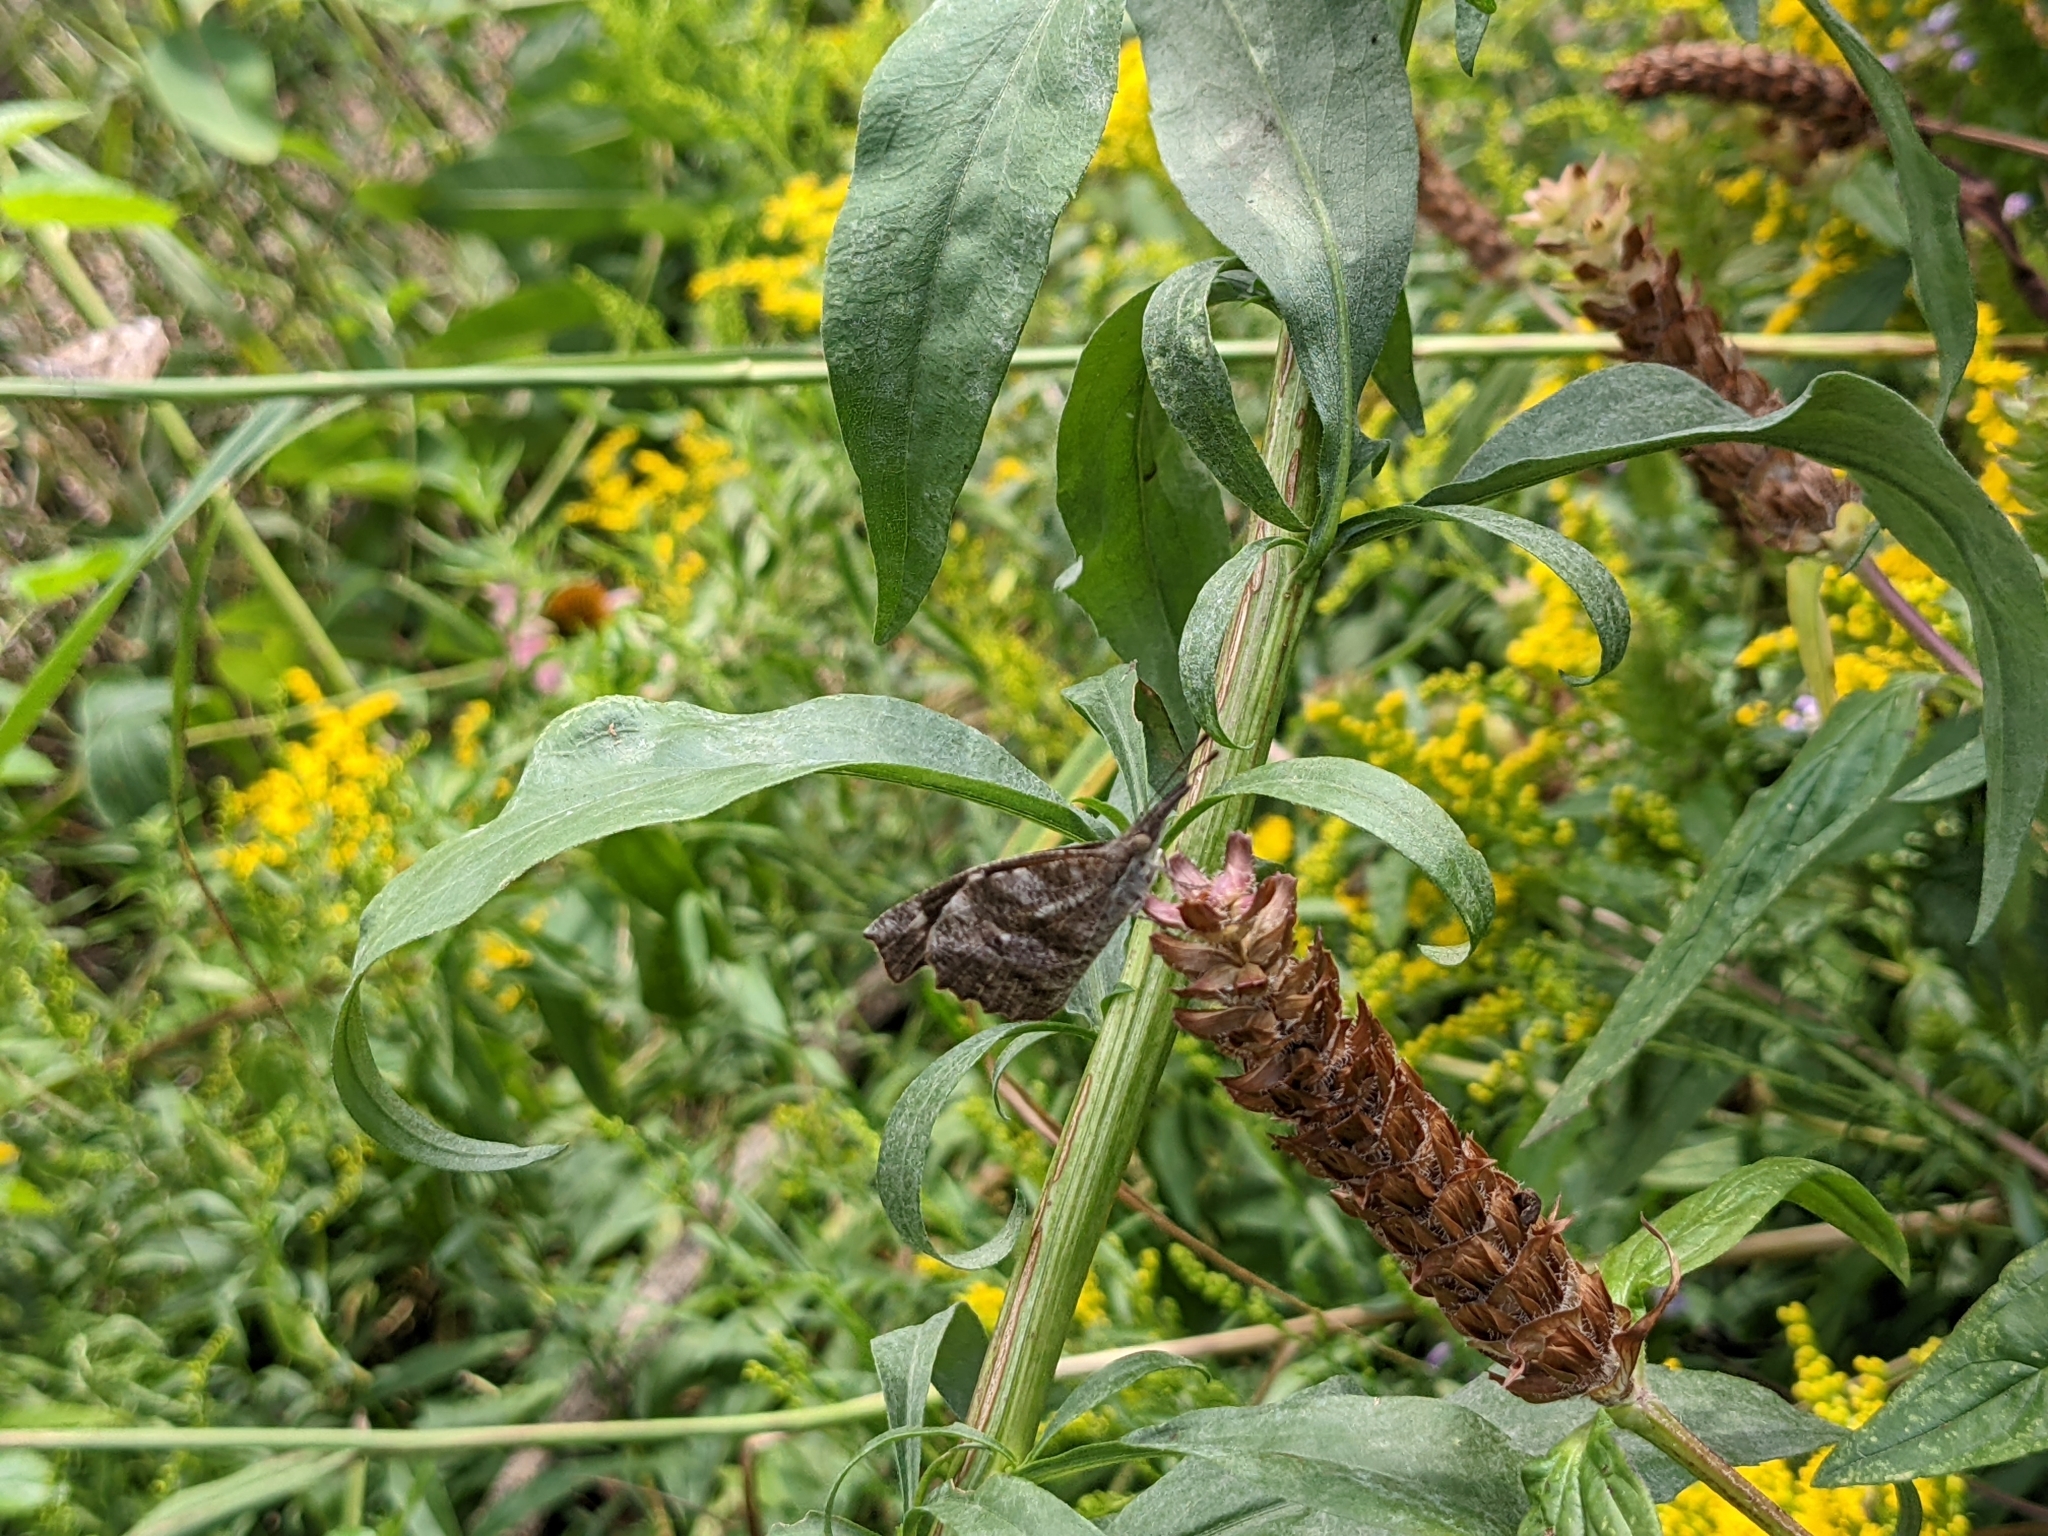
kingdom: Animalia
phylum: Arthropoda
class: Insecta
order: Lepidoptera
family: Nymphalidae
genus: Libytheana
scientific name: Libytheana carinenta
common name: American snout
